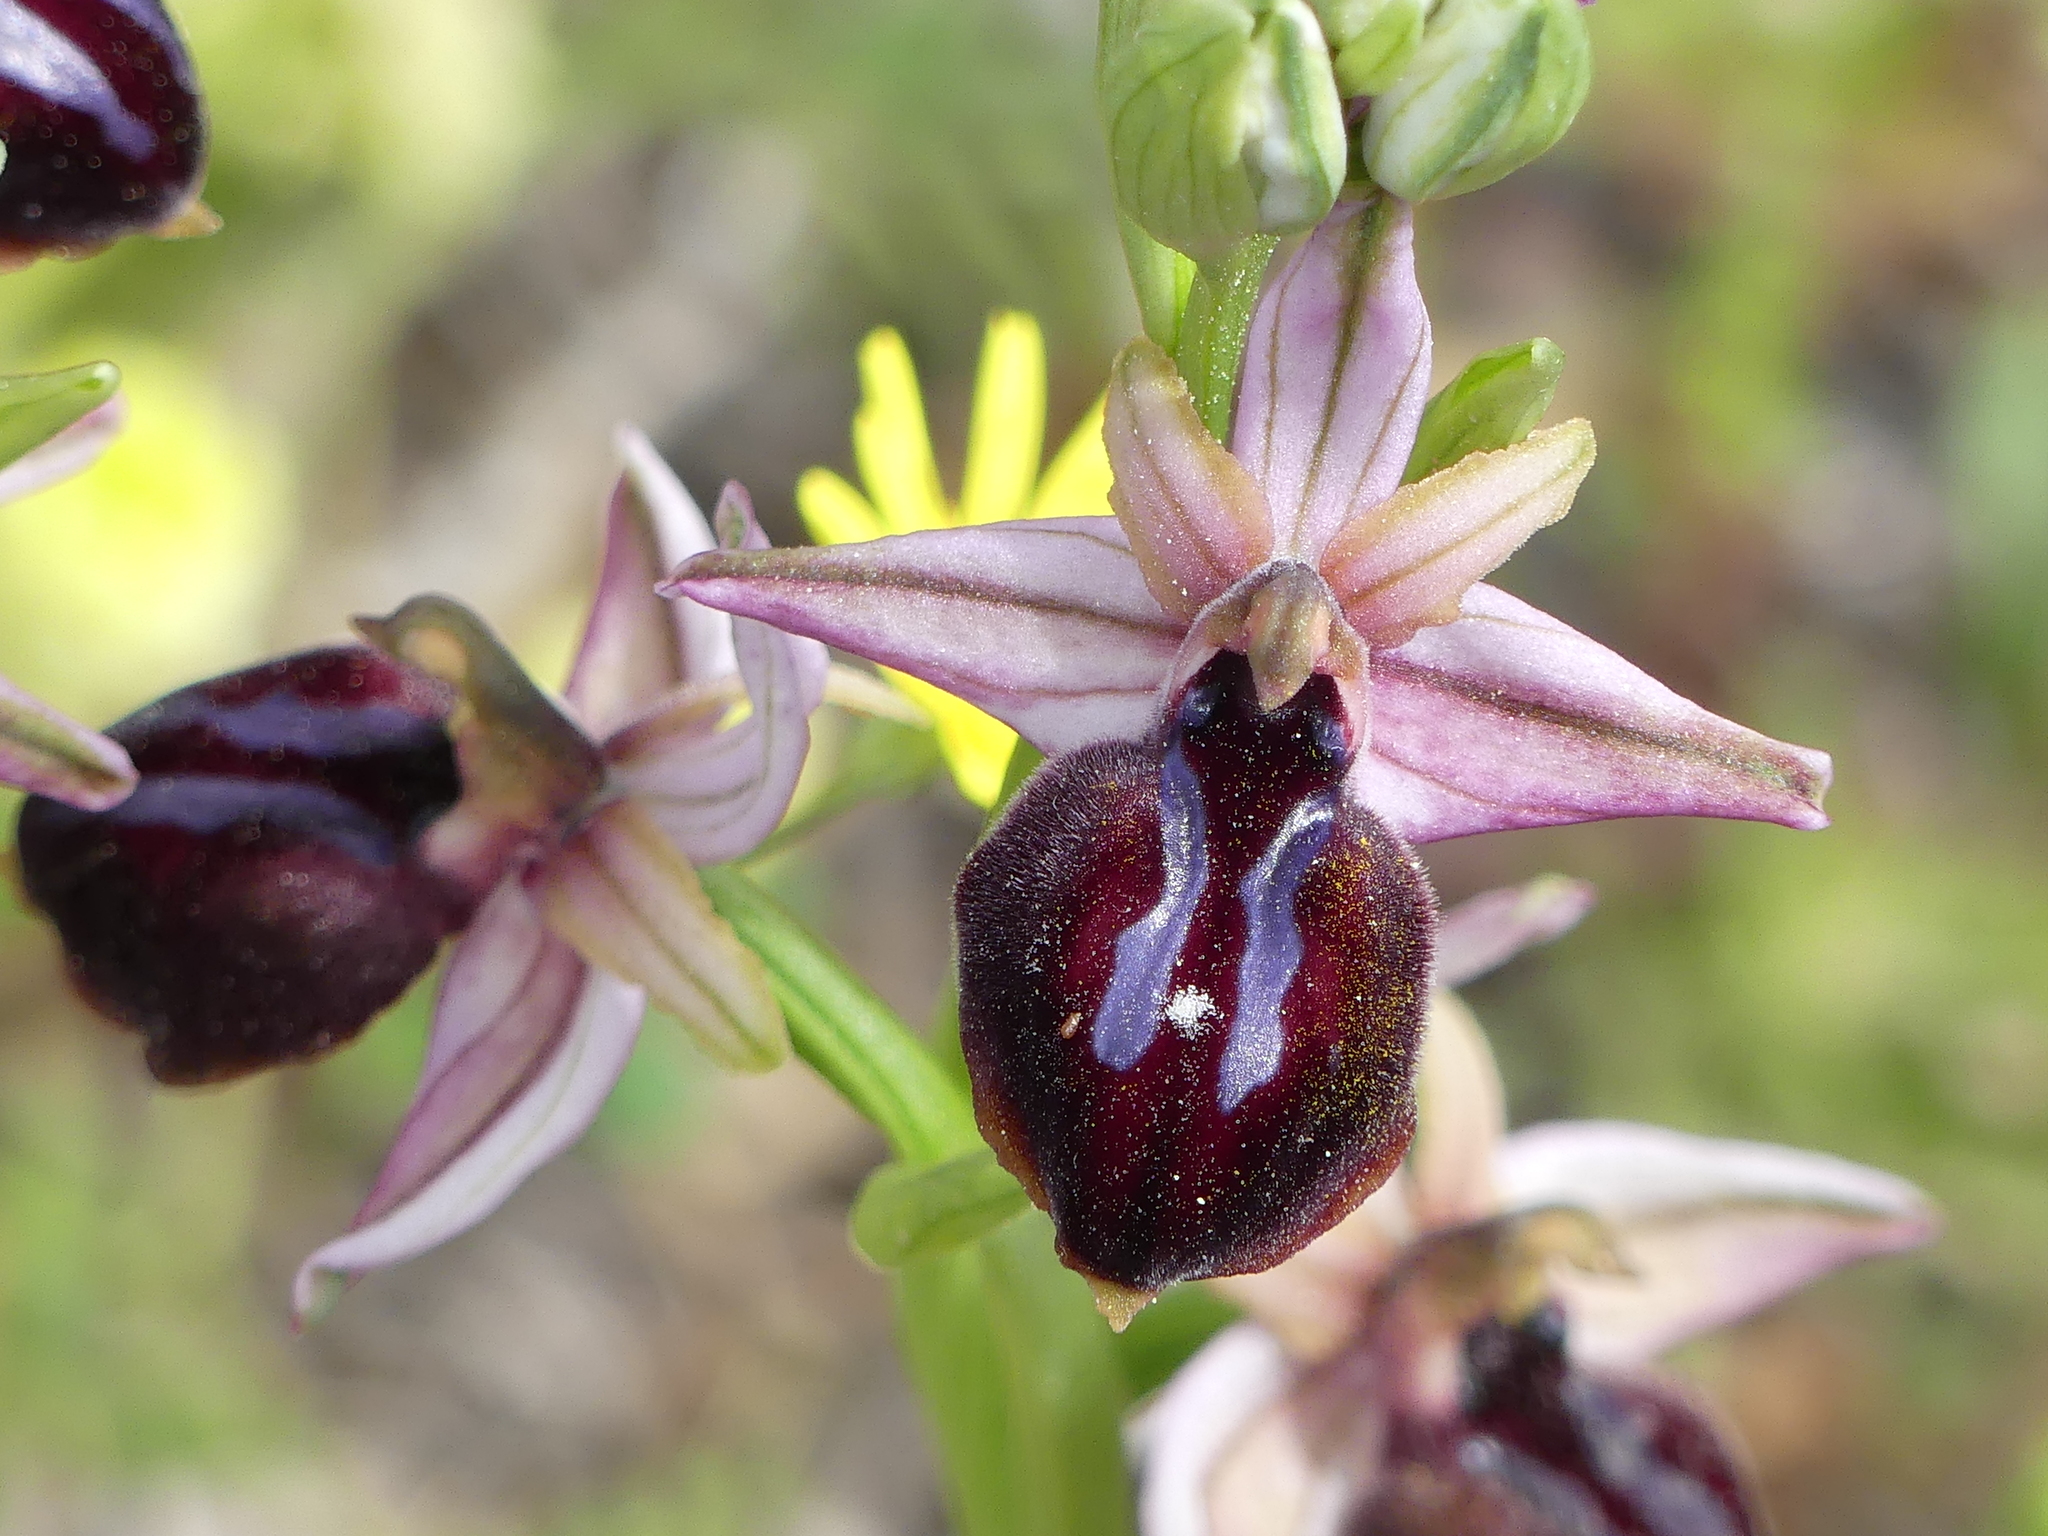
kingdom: Plantae
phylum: Tracheophyta
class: Liliopsida
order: Asparagales
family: Orchidaceae
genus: Ophrys
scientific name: Ophrys sphegodes
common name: Early spider-orchid
